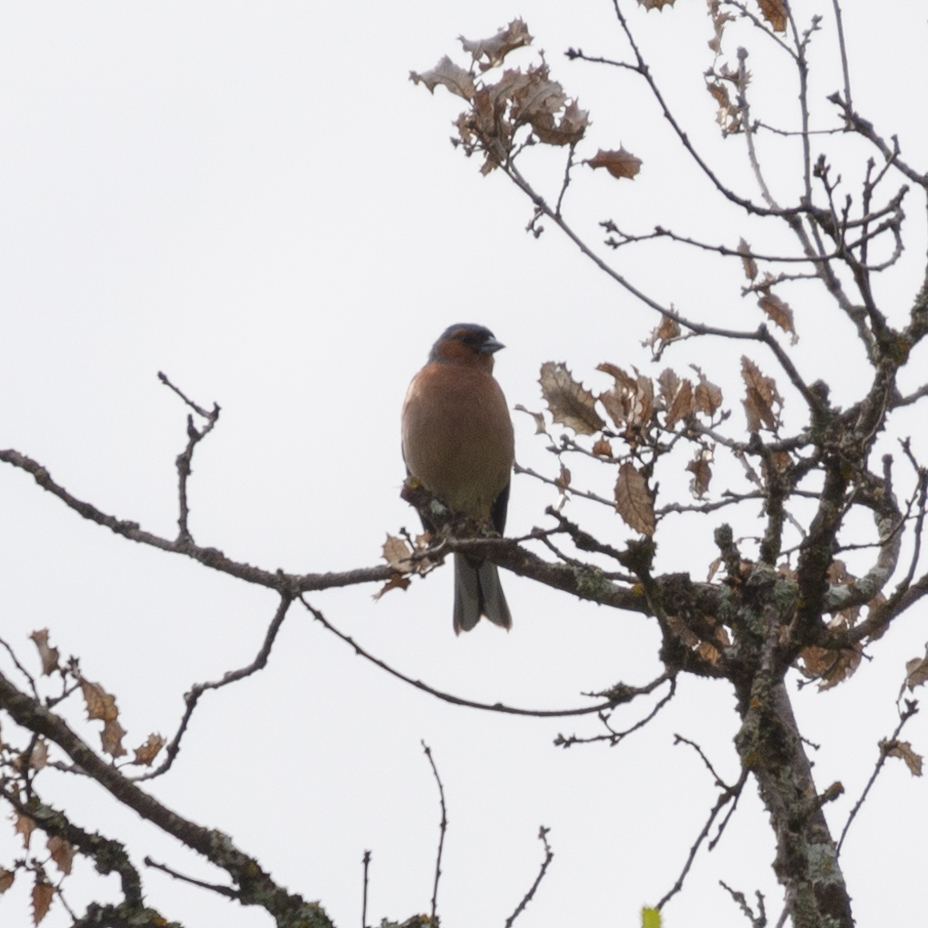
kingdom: Animalia
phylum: Chordata
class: Aves
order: Passeriformes
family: Fringillidae
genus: Fringilla
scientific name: Fringilla coelebs
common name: Common chaffinch
